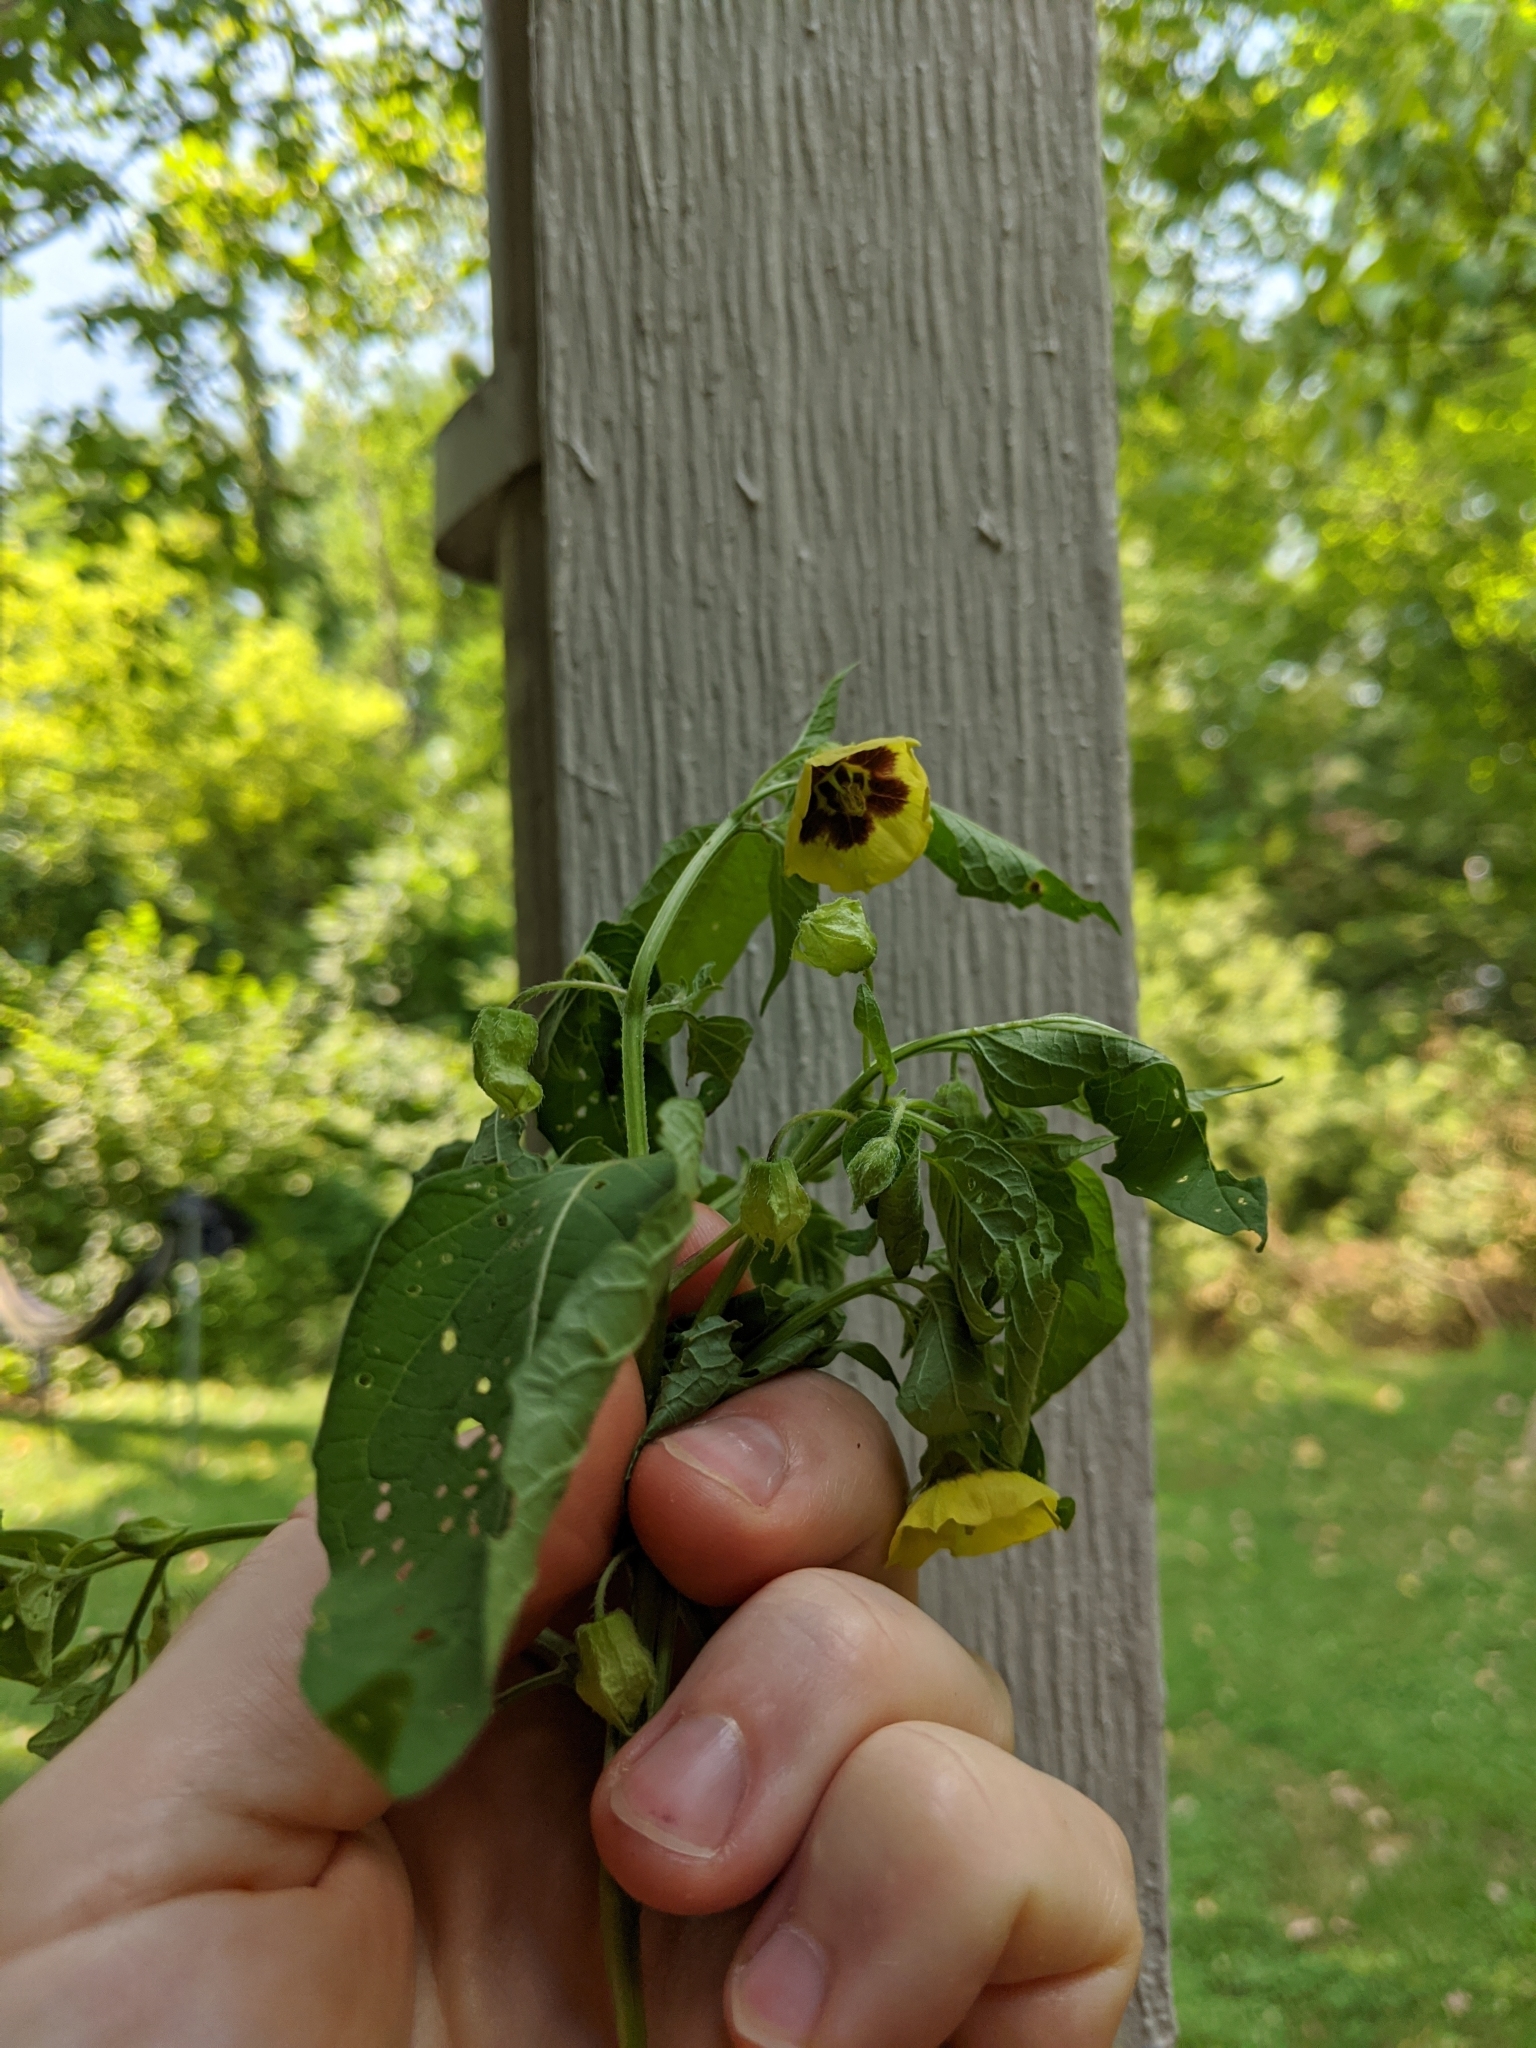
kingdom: Plantae
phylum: Tracheophyta
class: Magnoliopsida
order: Solanales
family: Solanaceae
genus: Physalis
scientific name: Physalis longifolia
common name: Common ground-cherry
